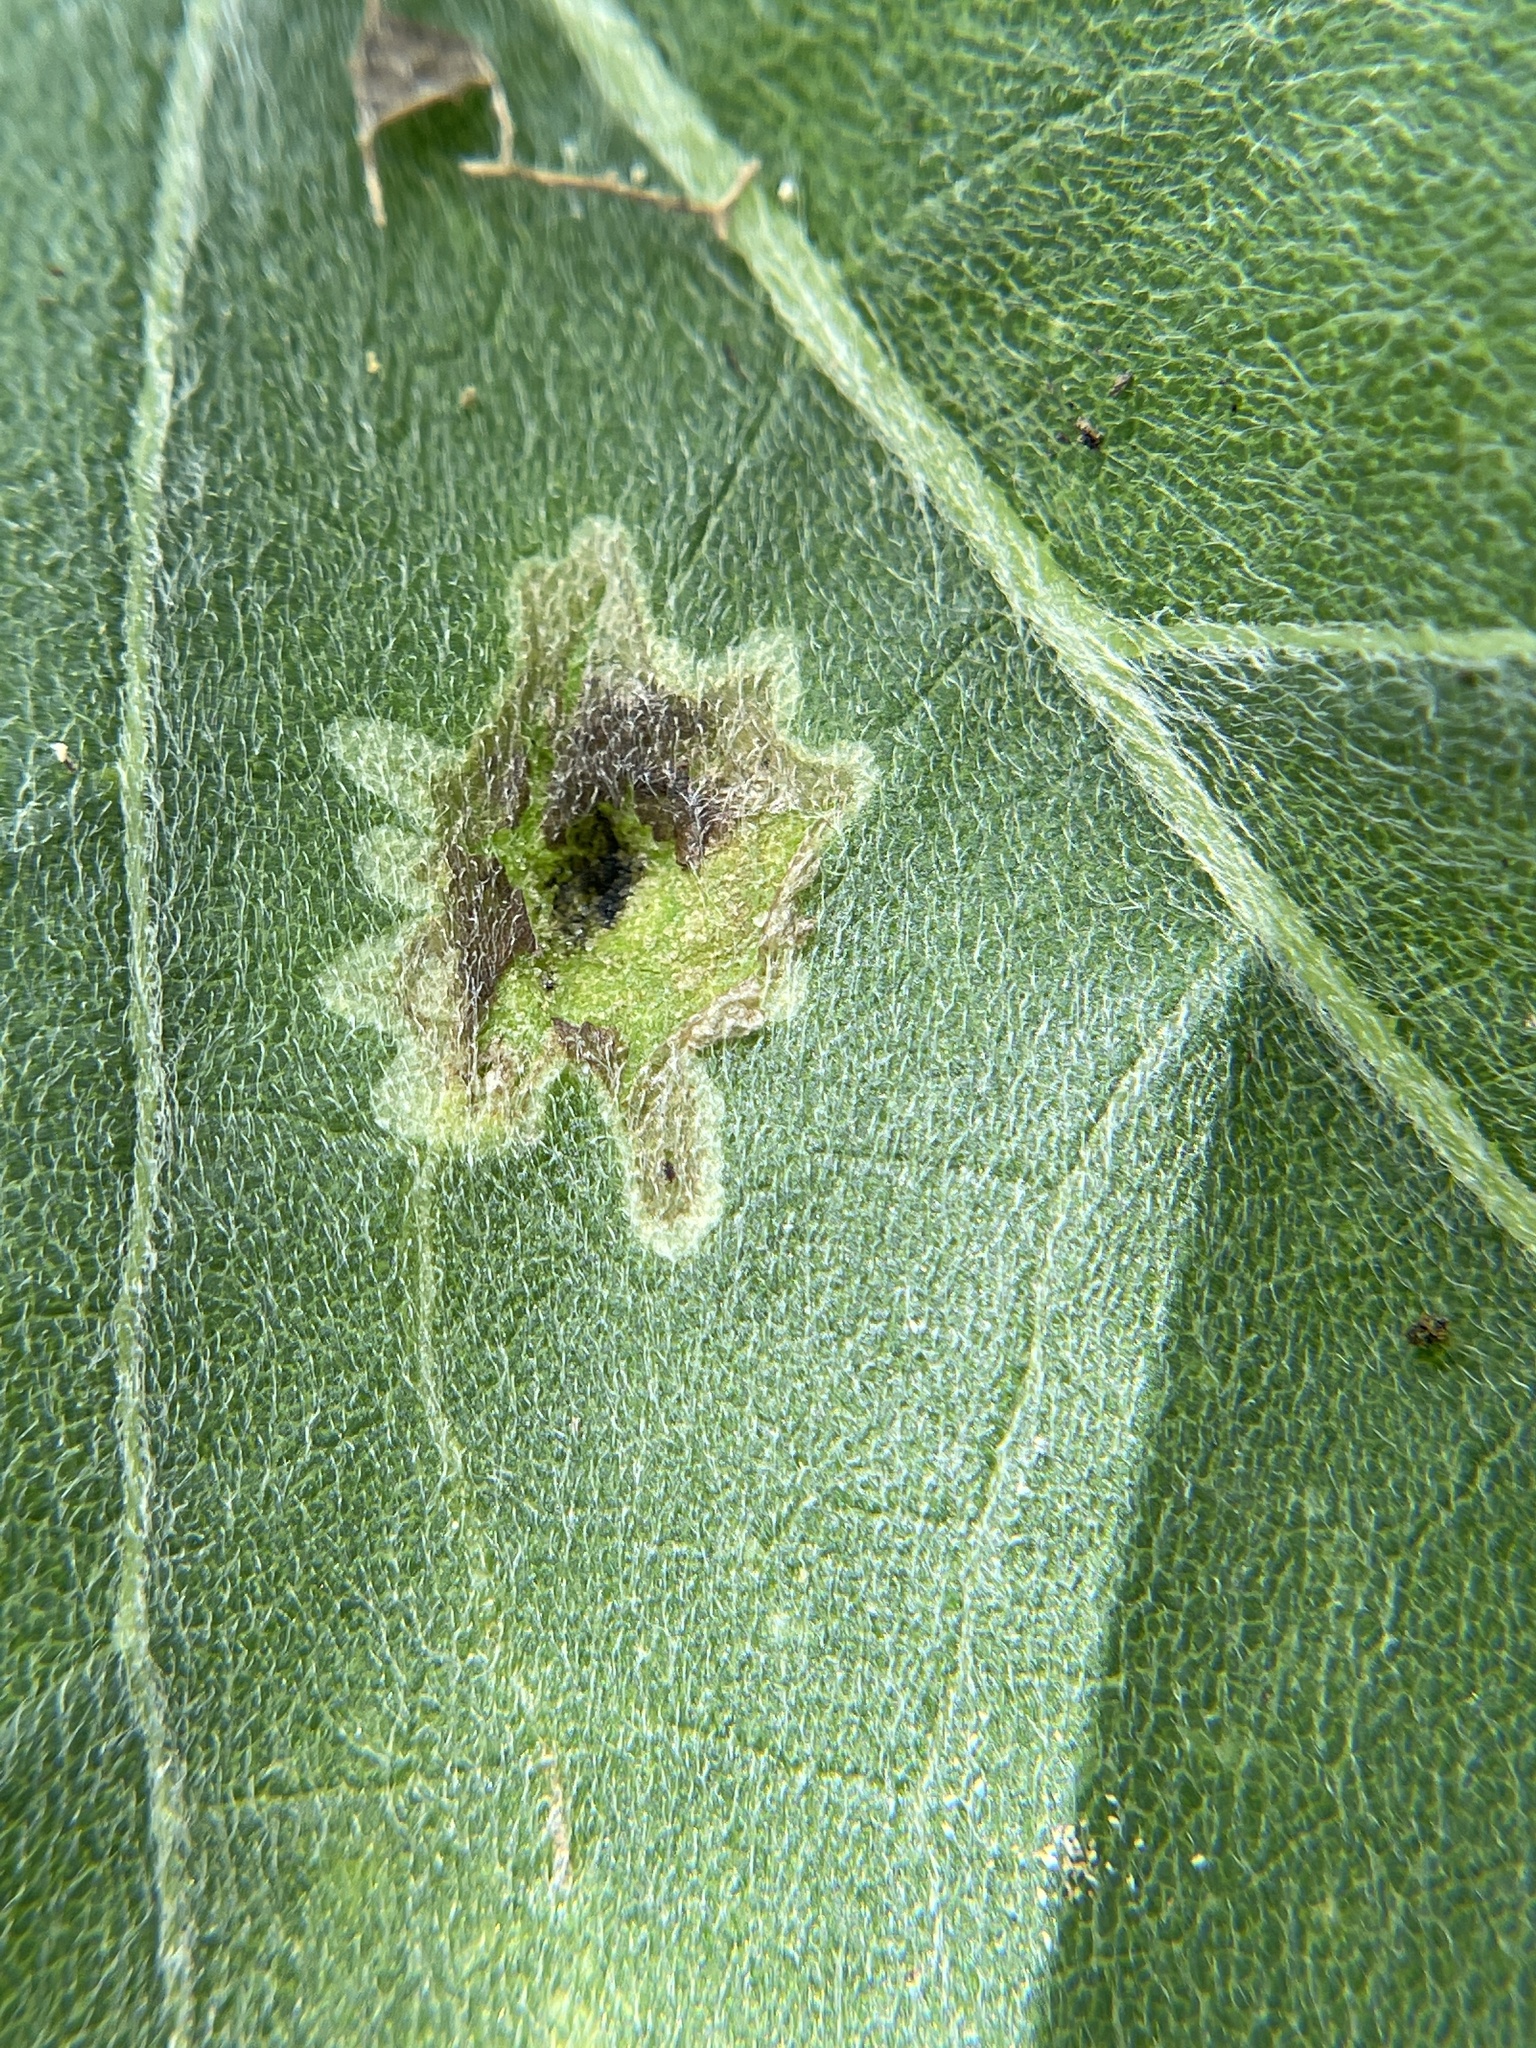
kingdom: Animalia
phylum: Arthropoda
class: Insecta
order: Diptera
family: Agromyzidae
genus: Calycomyza
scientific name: Calycomyza platyptera
